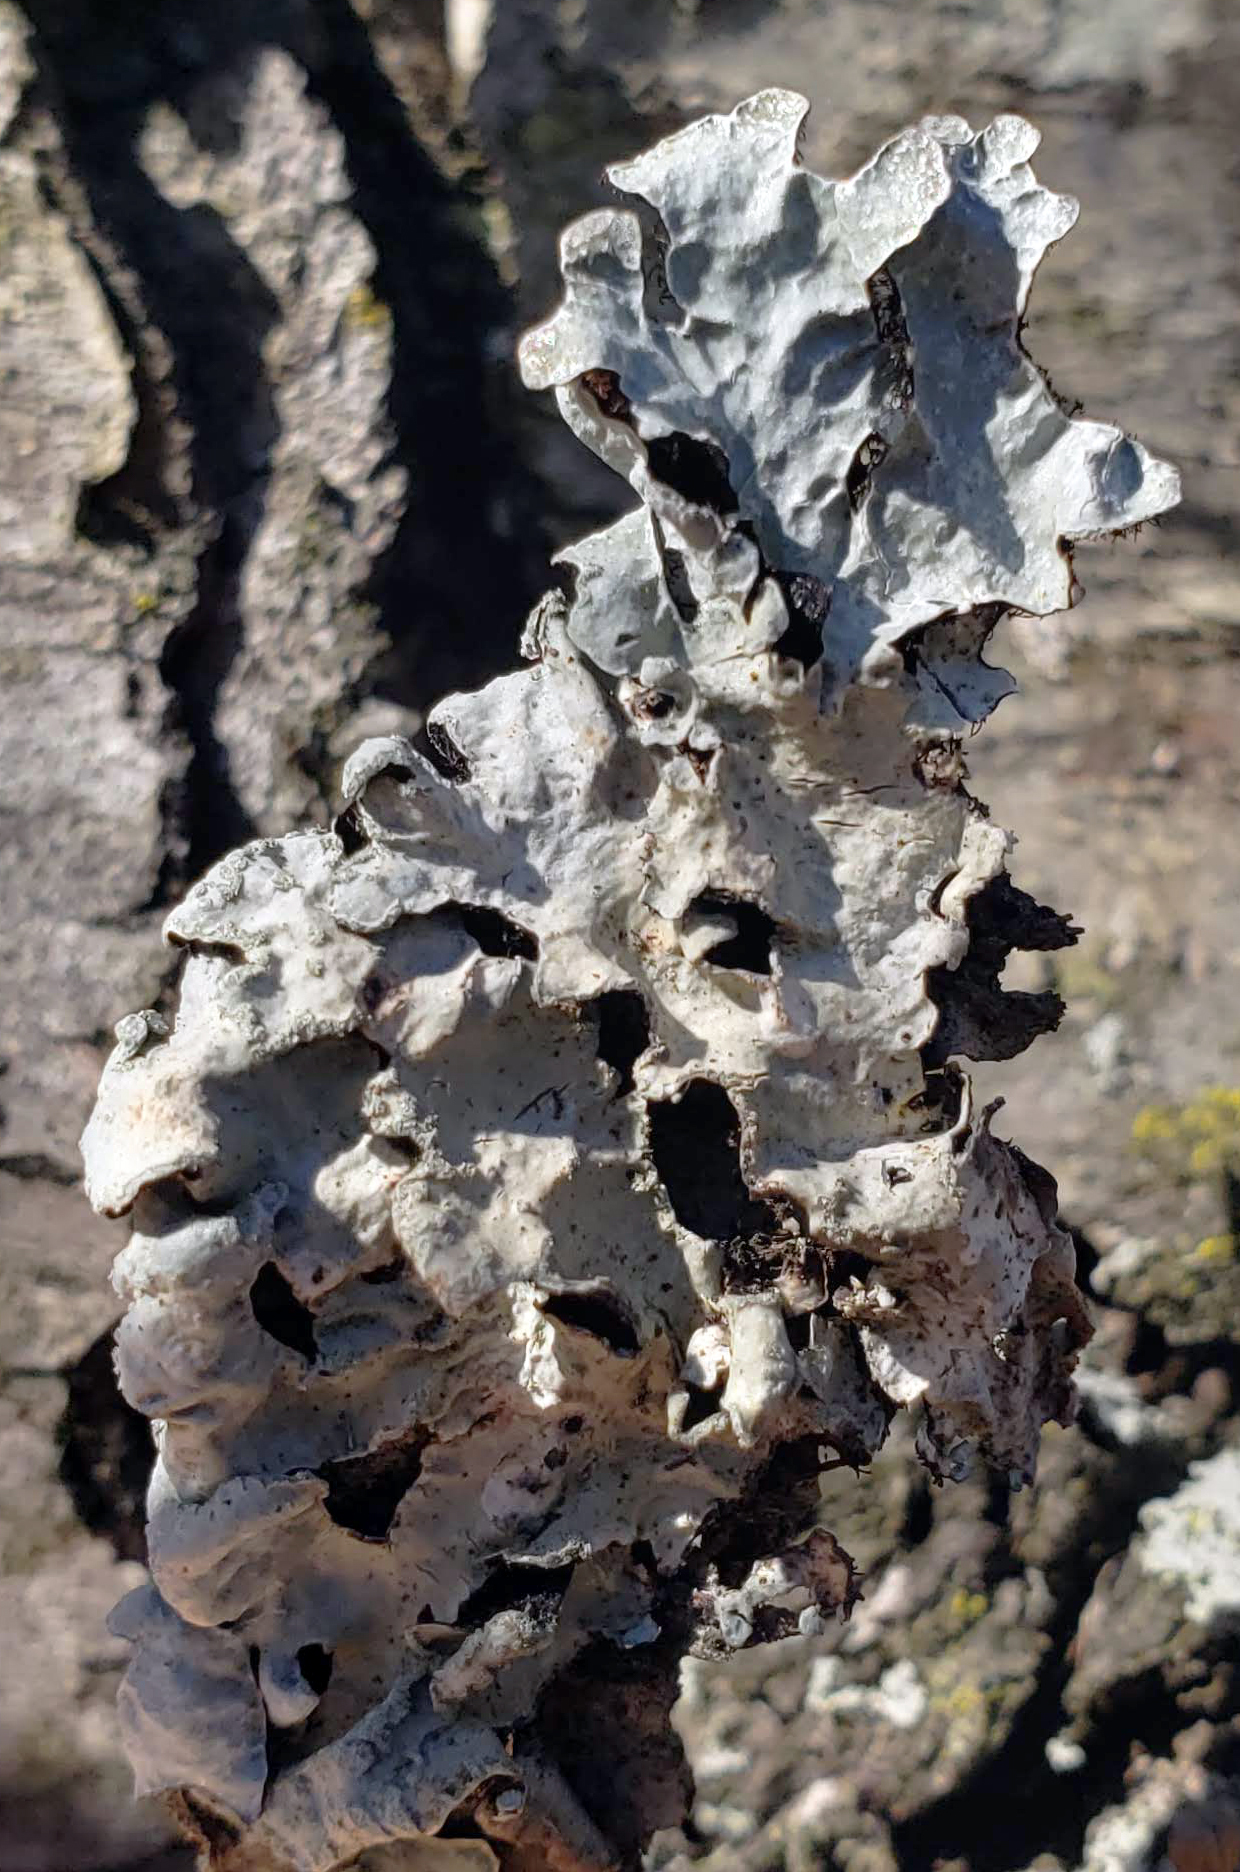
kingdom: Fungi
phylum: Ascomycota
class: Lecanoromycetes
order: Lecanorales
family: Parmeliaceae
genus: Parmelia
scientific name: Parmelia sulcata
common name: Netted shield lichen
